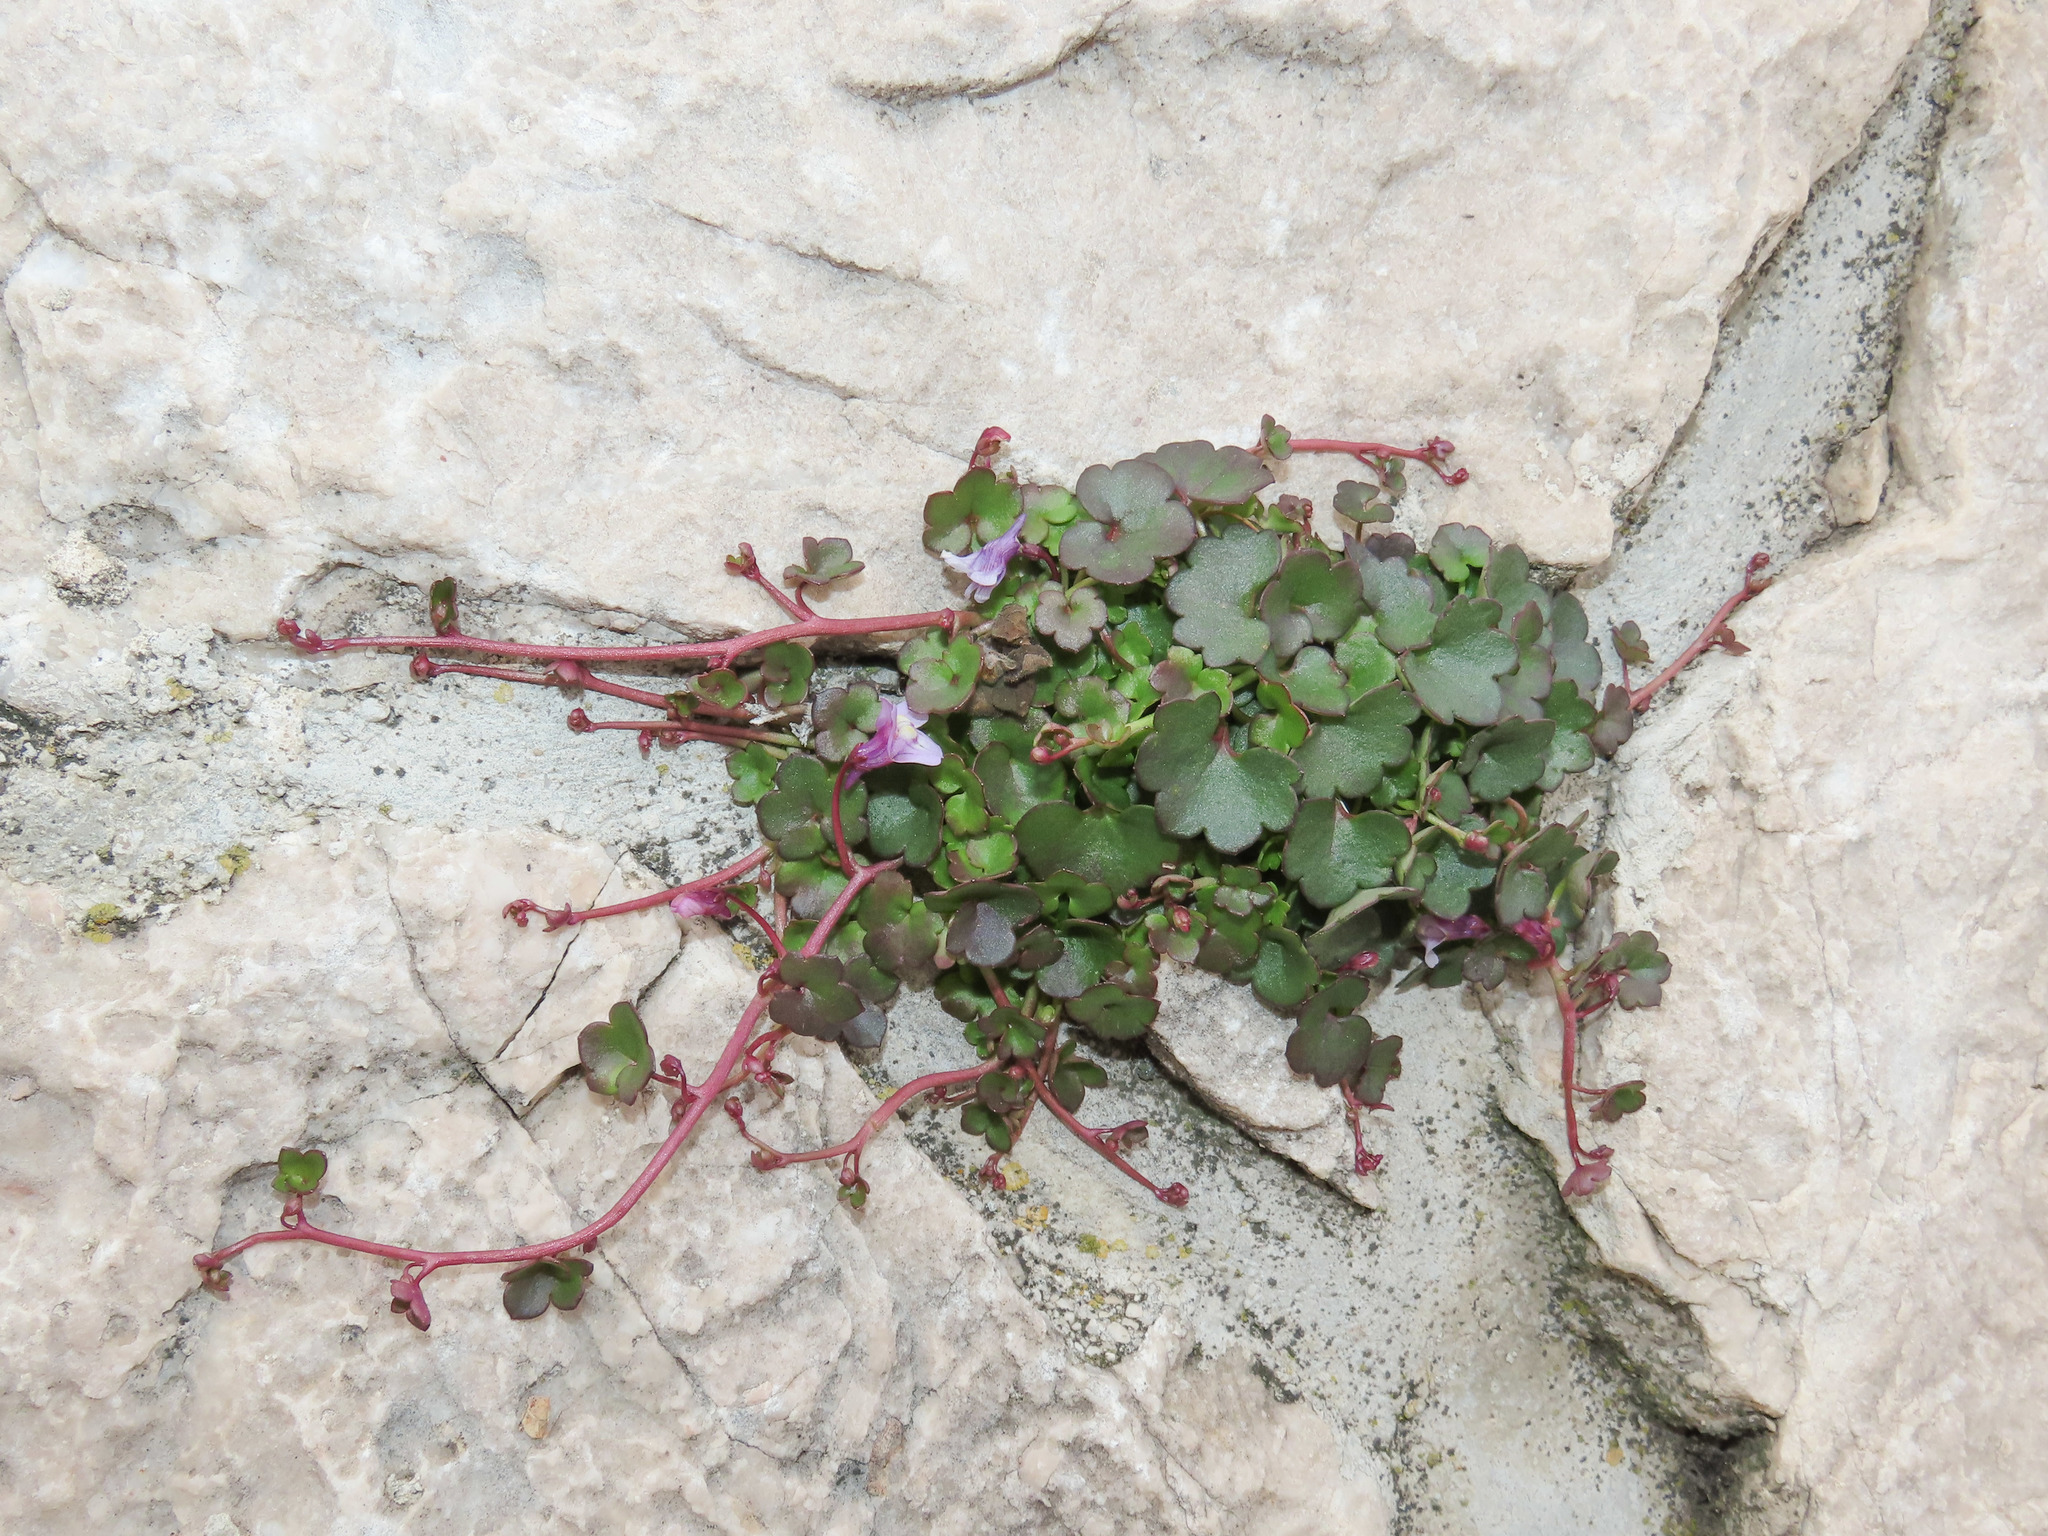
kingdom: Plantae
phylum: Tracheophyta
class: Magnoliopsida
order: Lamiales
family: Plantaginaceae
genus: Cymbalaria
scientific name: Cymbalaria muralis
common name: Ivy-leaved toadflax
